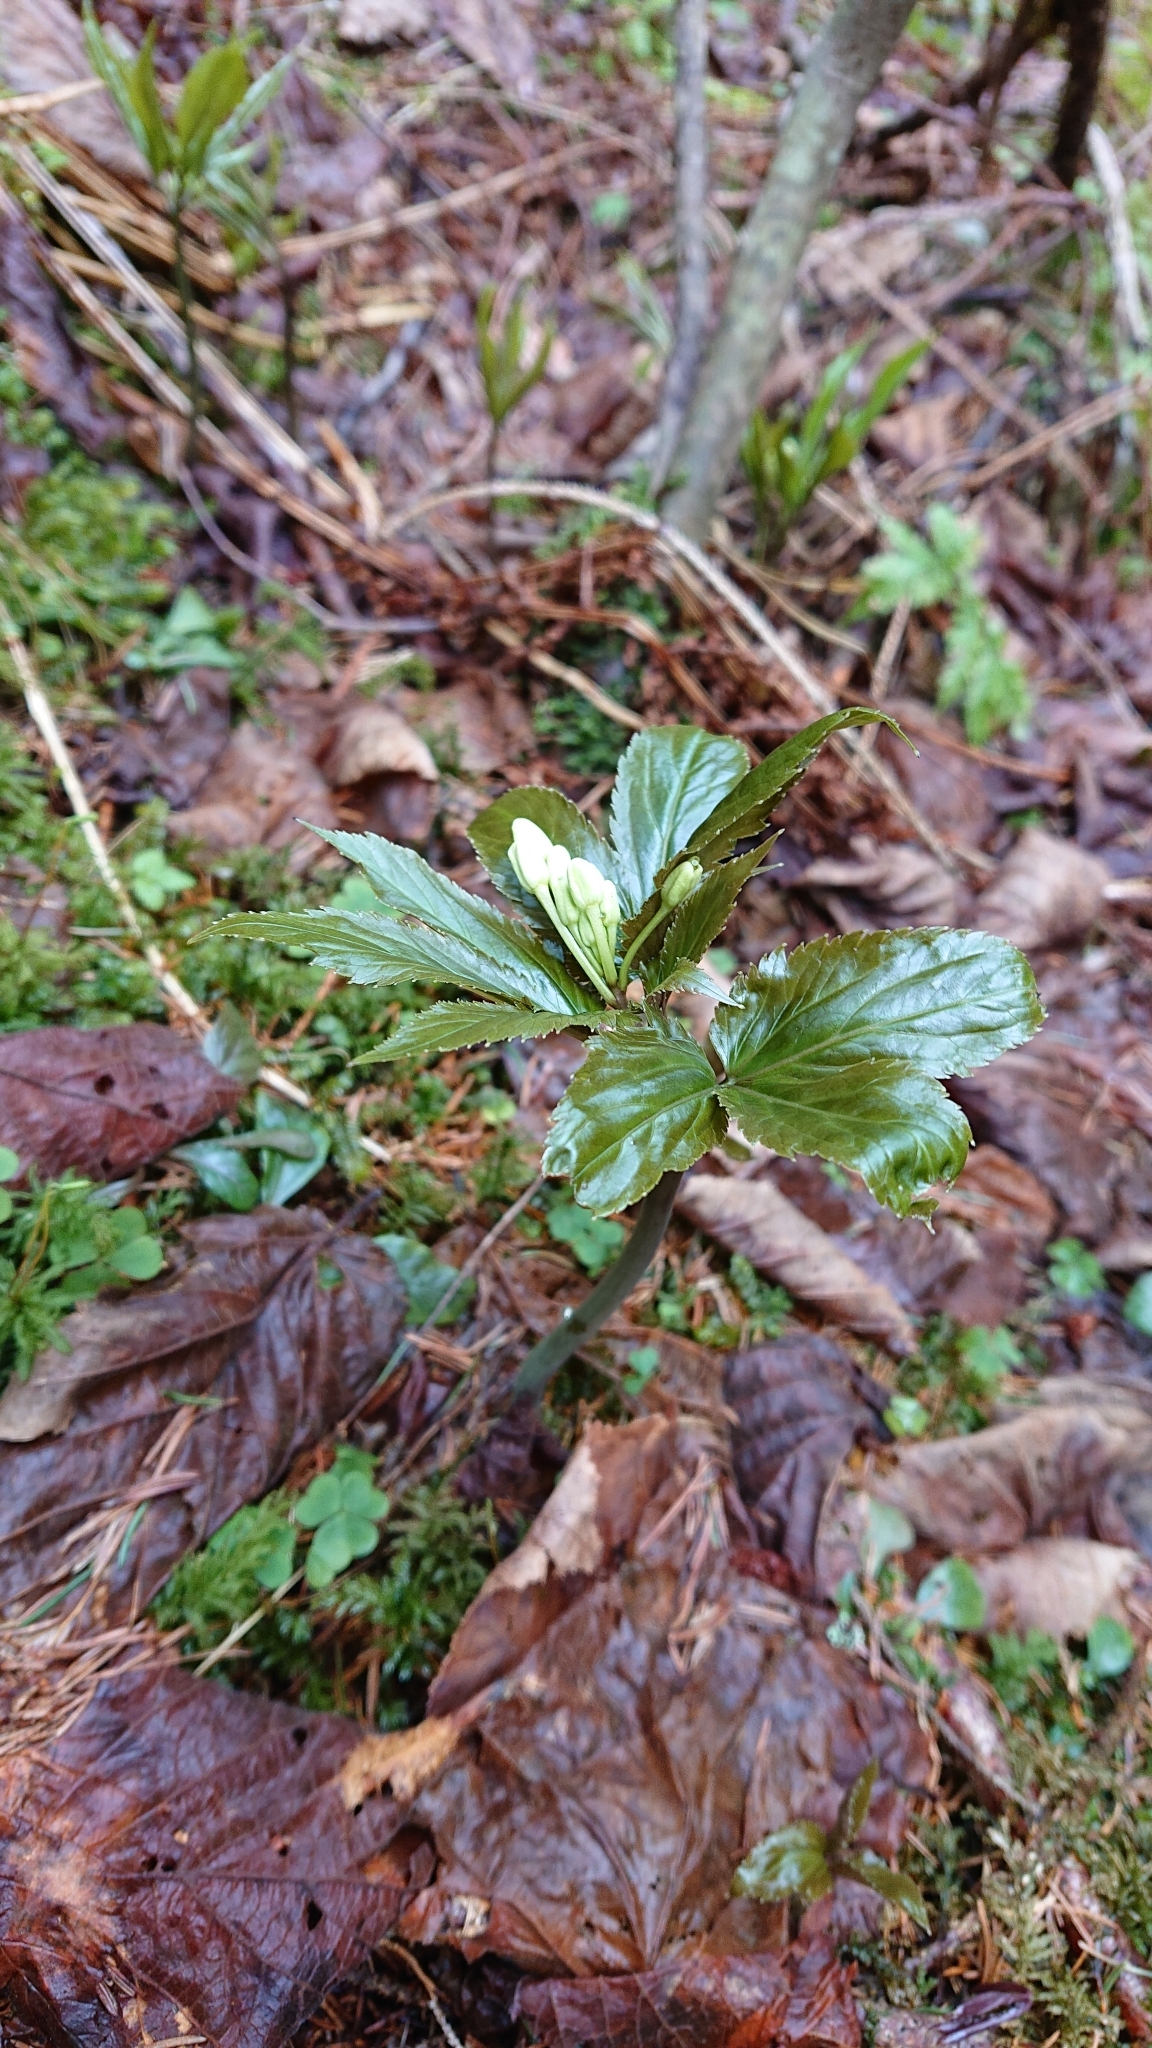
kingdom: Plantae
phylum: Tracheophyta
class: Magnoliopsida
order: Brassicales
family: Brassicaceae
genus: Cardamine
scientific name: Cardamine enneaphyllos
